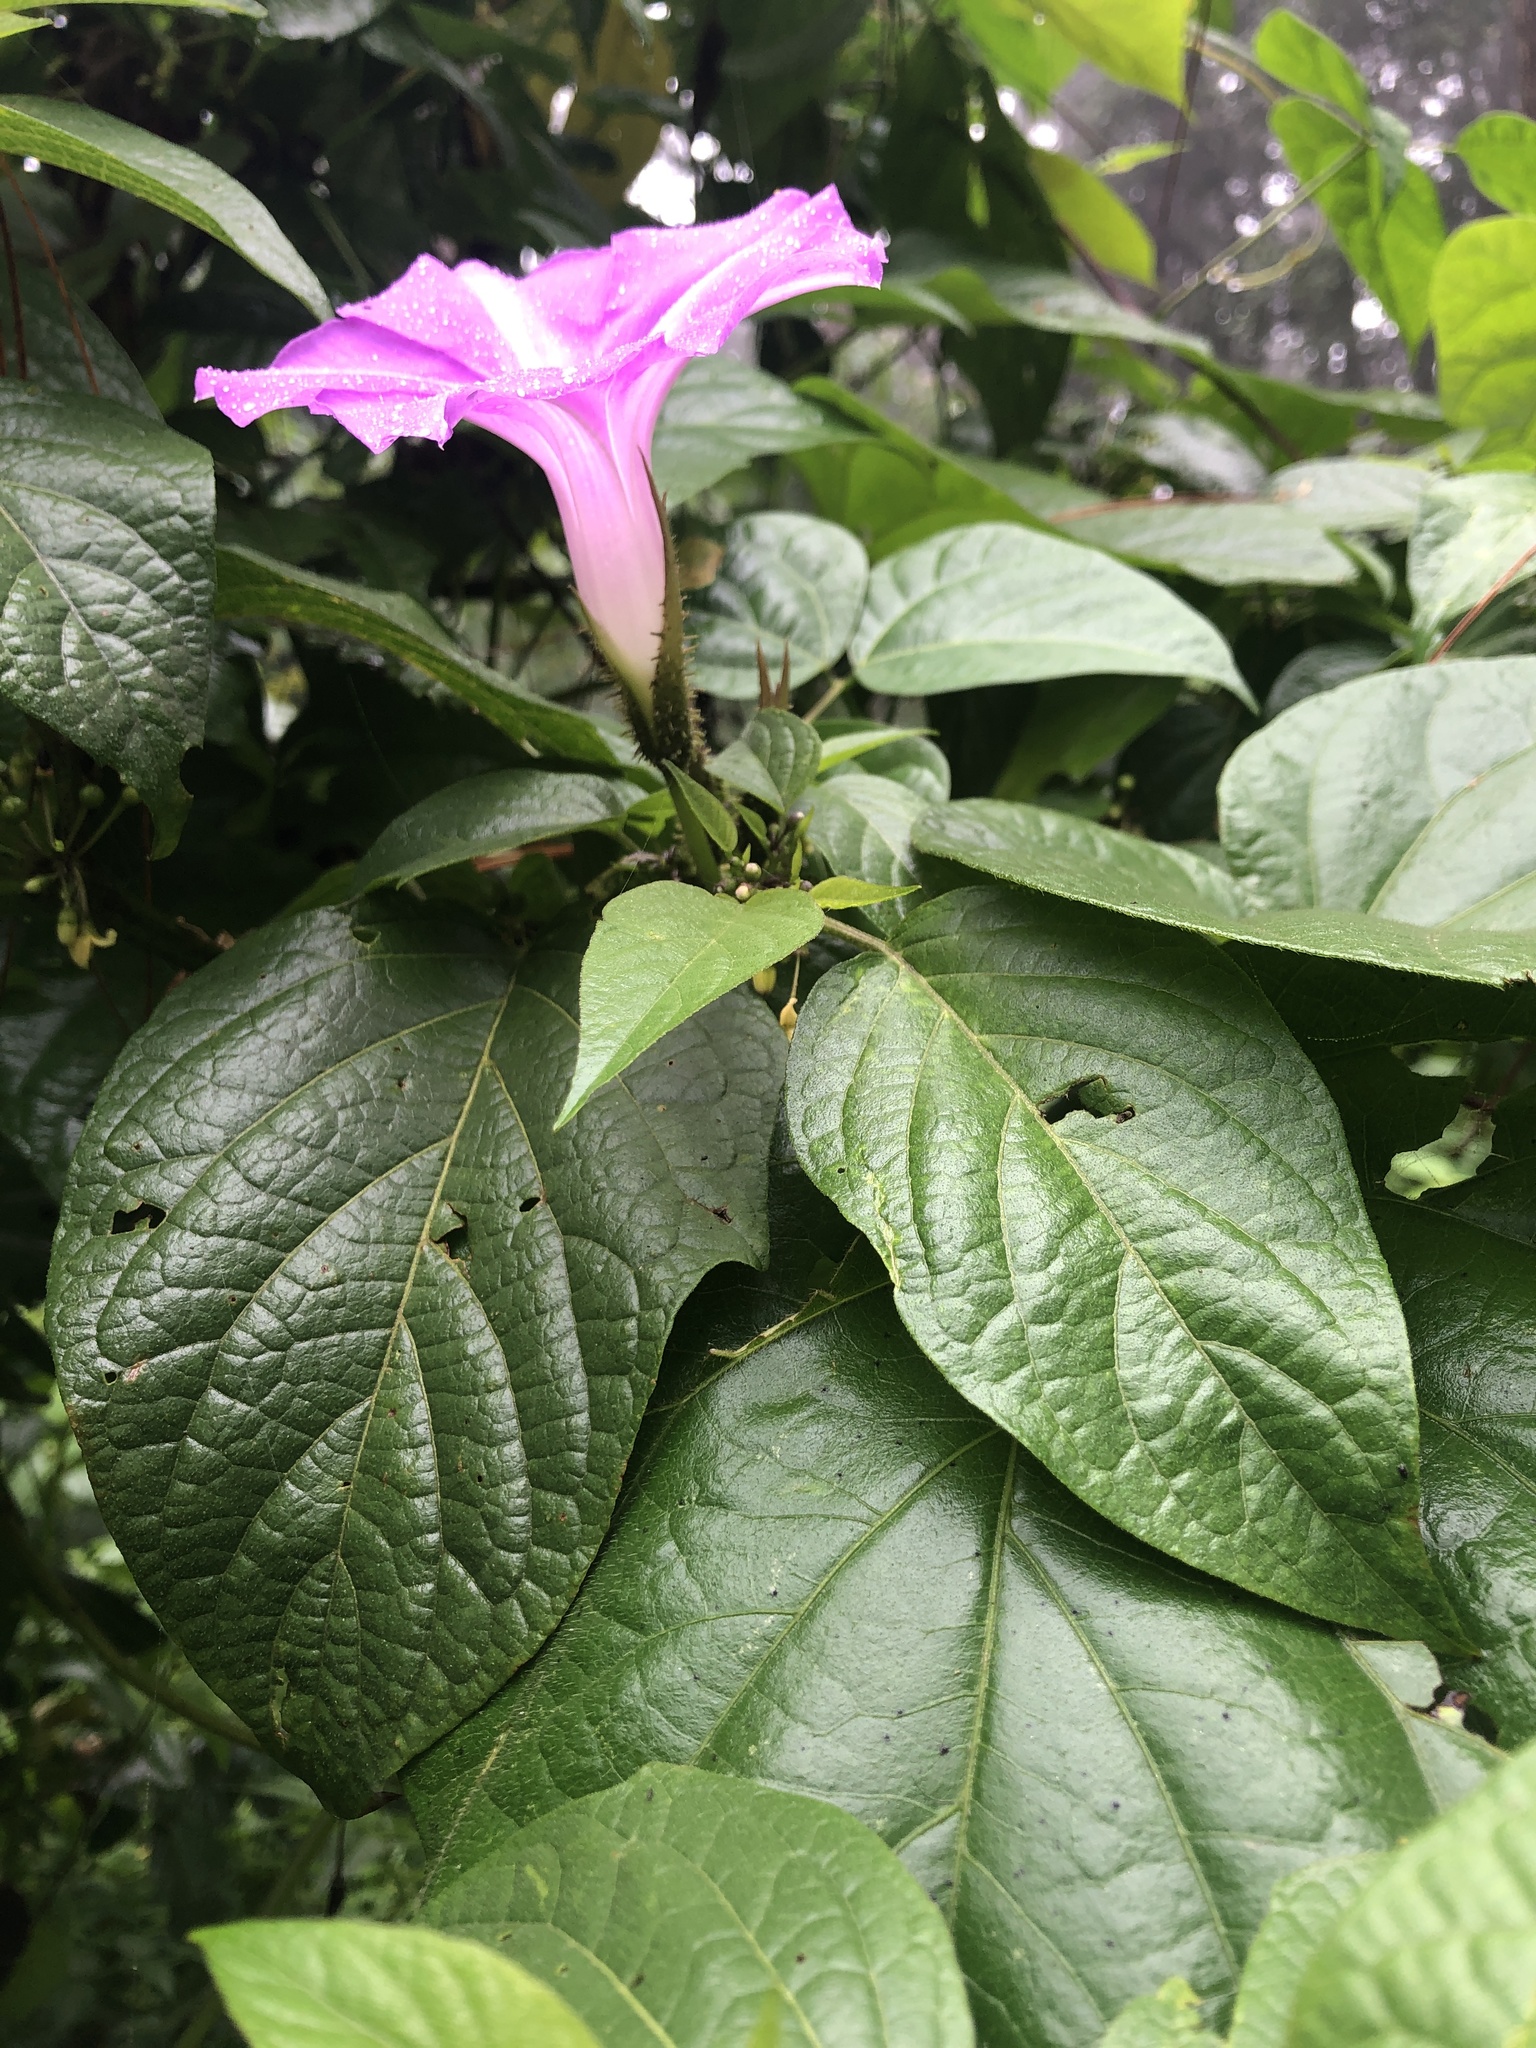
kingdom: Plantae
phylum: Tracheophyta
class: Magnoliopsida
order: Solanales
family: Convolvulaceae
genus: Ipomoea
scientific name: Ipomoea silvicola
